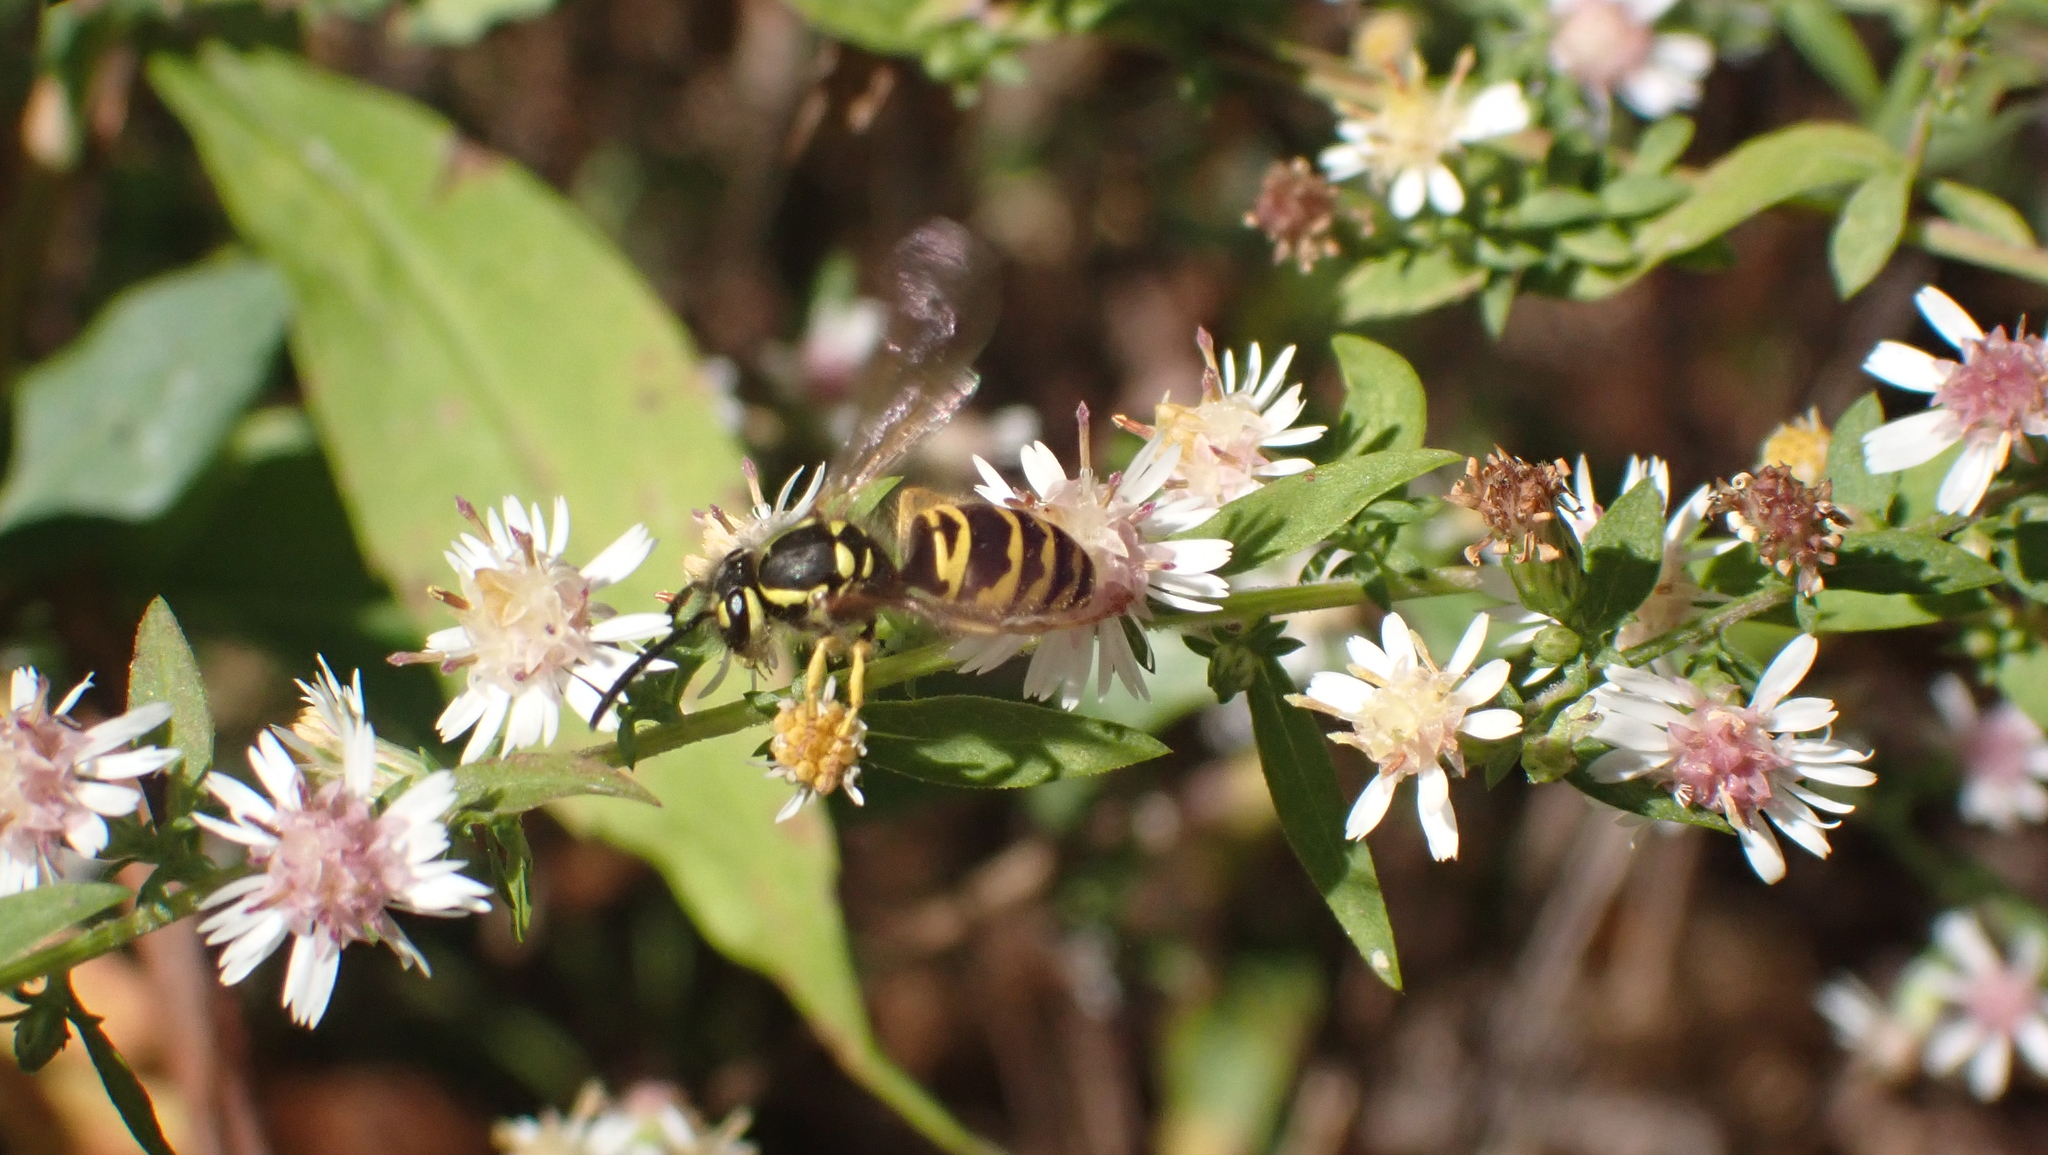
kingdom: Animalia
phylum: Arthropoda
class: Insecta
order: Hymenoptera
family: Vespidae
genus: Vespula
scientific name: Vespula maculifrons
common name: Eastern yellowjacket
